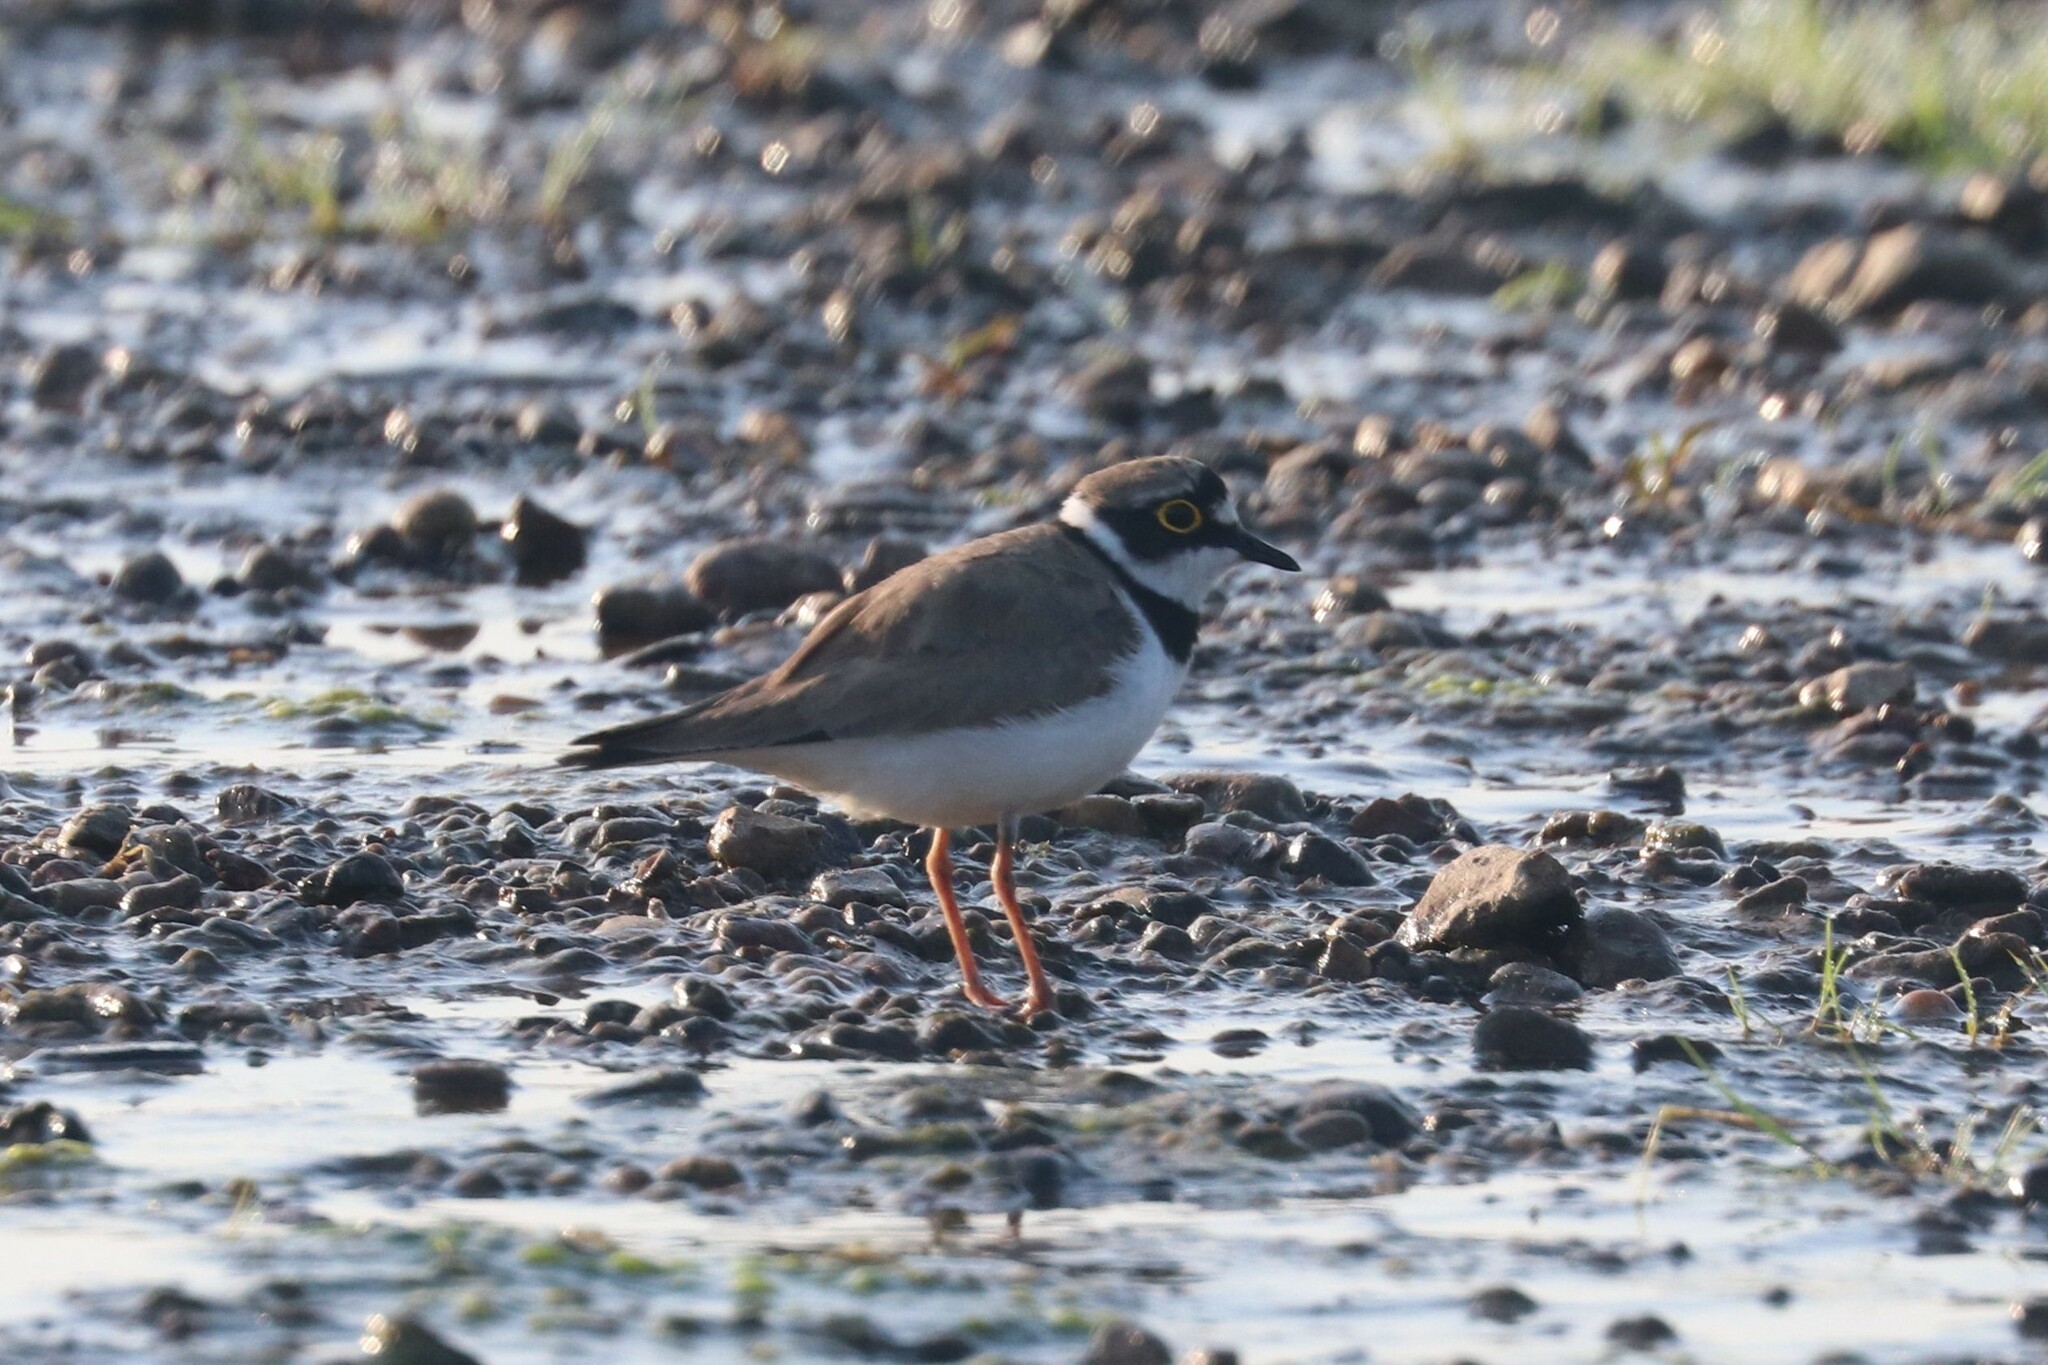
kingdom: Animalia
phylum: Chordata
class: Aves
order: Charadriiformes
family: Charadriidae
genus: Charadrius
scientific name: Charadrius dubius
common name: Little ringed plover
